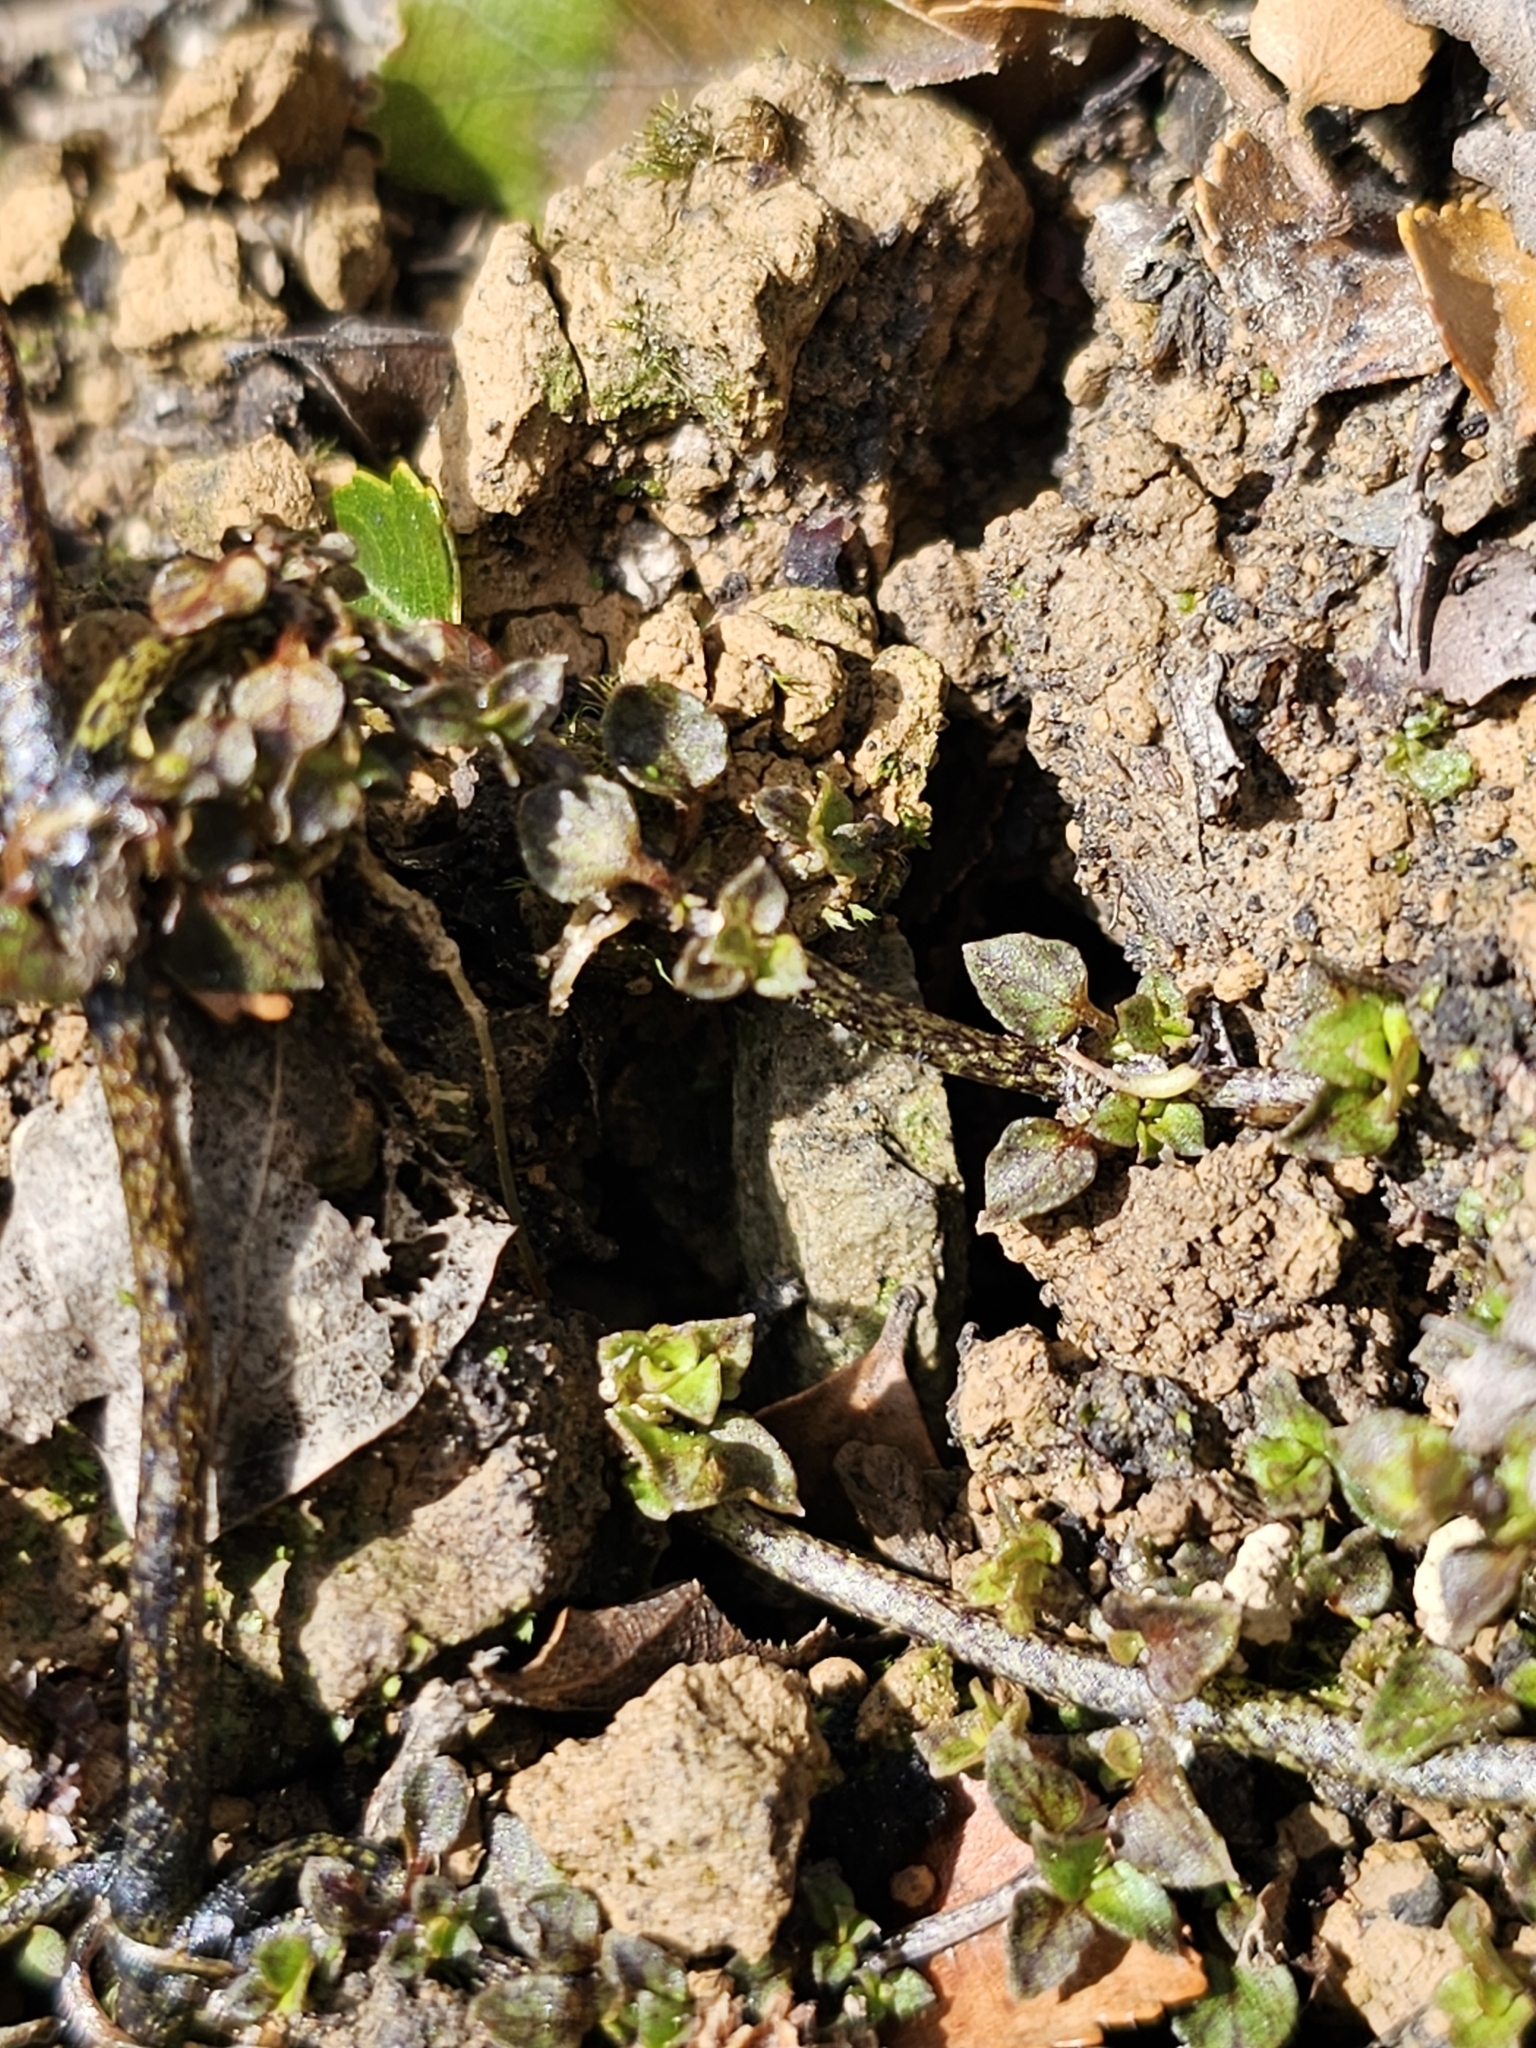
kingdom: Plantae
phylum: Tracheophyta
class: Magnoliopsida
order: Gentianales
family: Rubiaceae
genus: Nertera
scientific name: Nertera granadensis
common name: Beadplant
